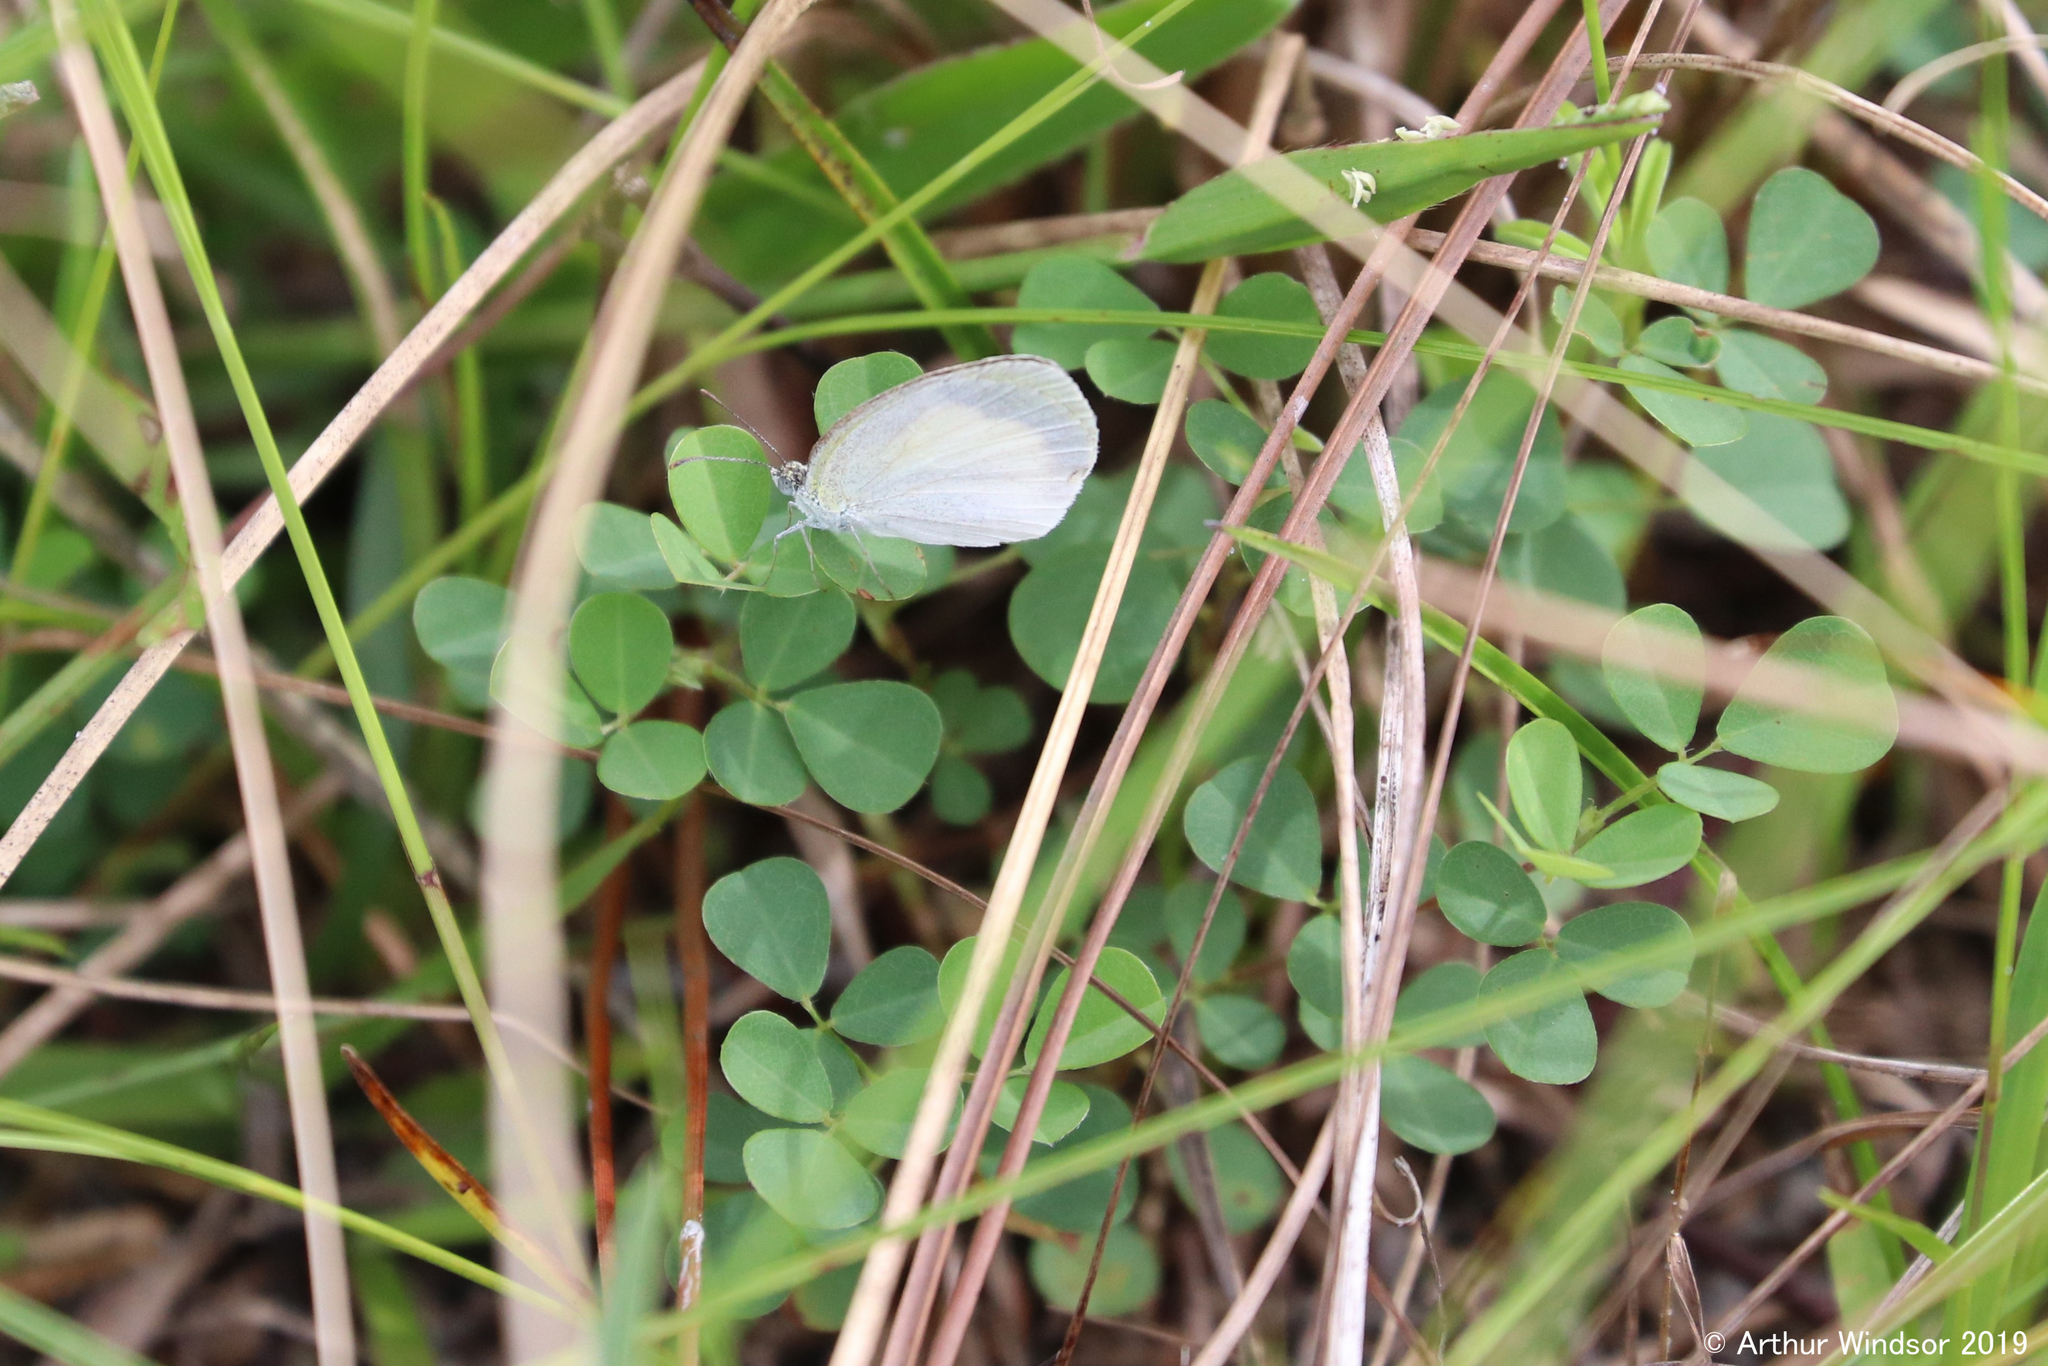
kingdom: Animalia
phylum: Arthropoda
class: Insecta
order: Lepidoptera
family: Pieridae
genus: Eurema
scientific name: Eurema daira
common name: Barred sulphur
